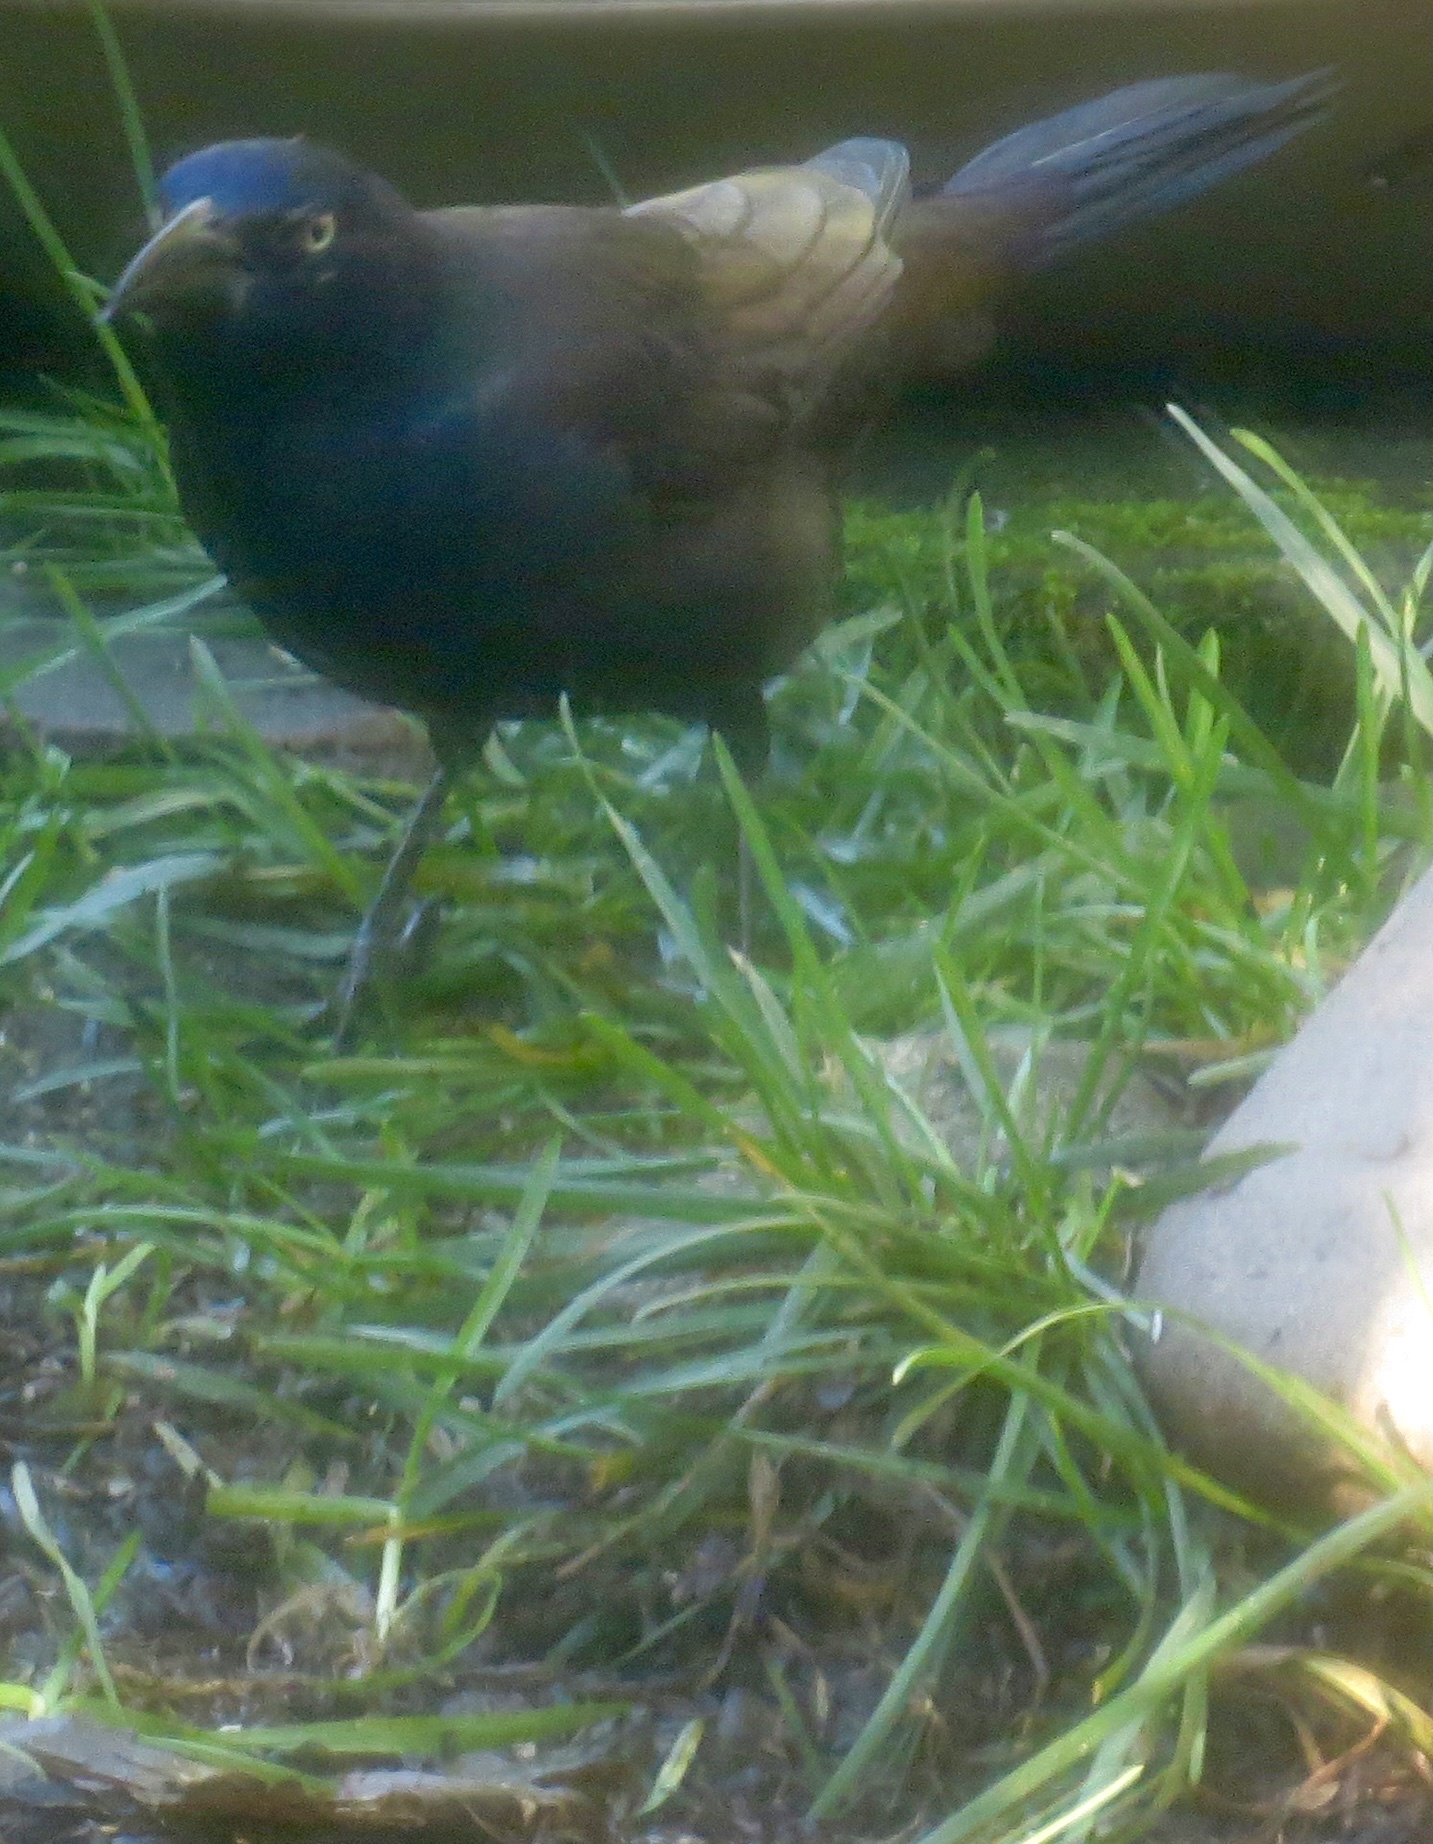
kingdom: Animalia
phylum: Chordata
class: Aves
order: Passeriformes
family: Icteridae
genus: Quiscalus
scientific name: Quiscalus quiscula
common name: Common grackle
